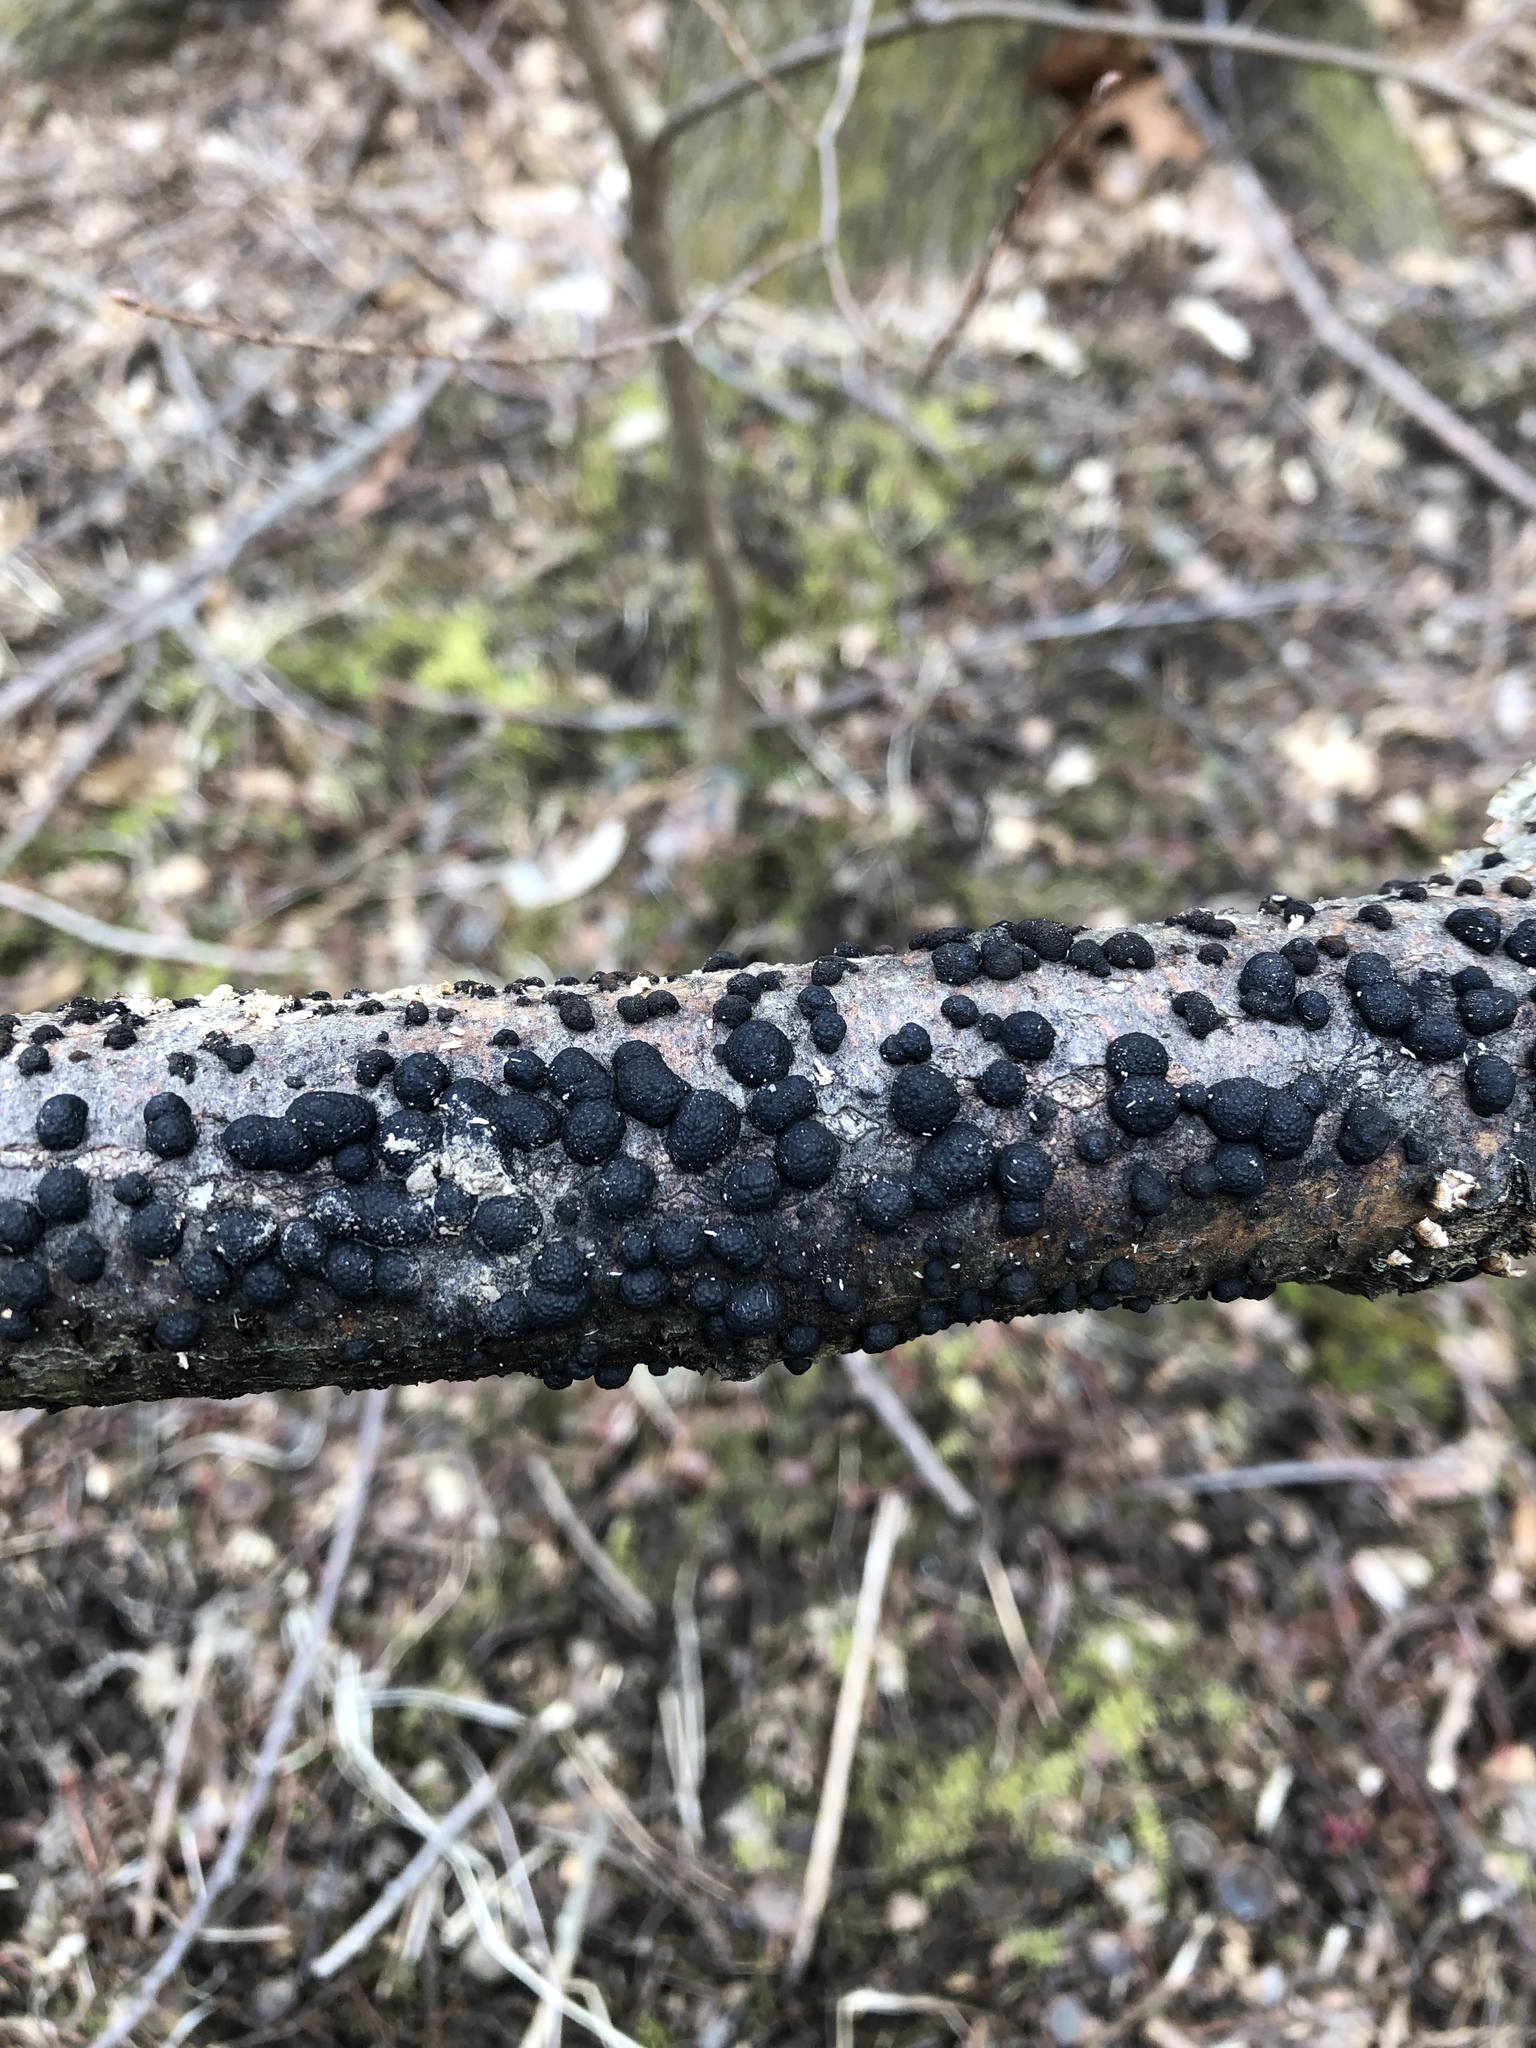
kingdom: Fungi
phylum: Ascomycota
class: Sordariomycetes
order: Xylariales
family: Hypoxylaceae
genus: Annulohypoxylon
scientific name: Annulohypoxylon thouarsianum
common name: Cramp balls
